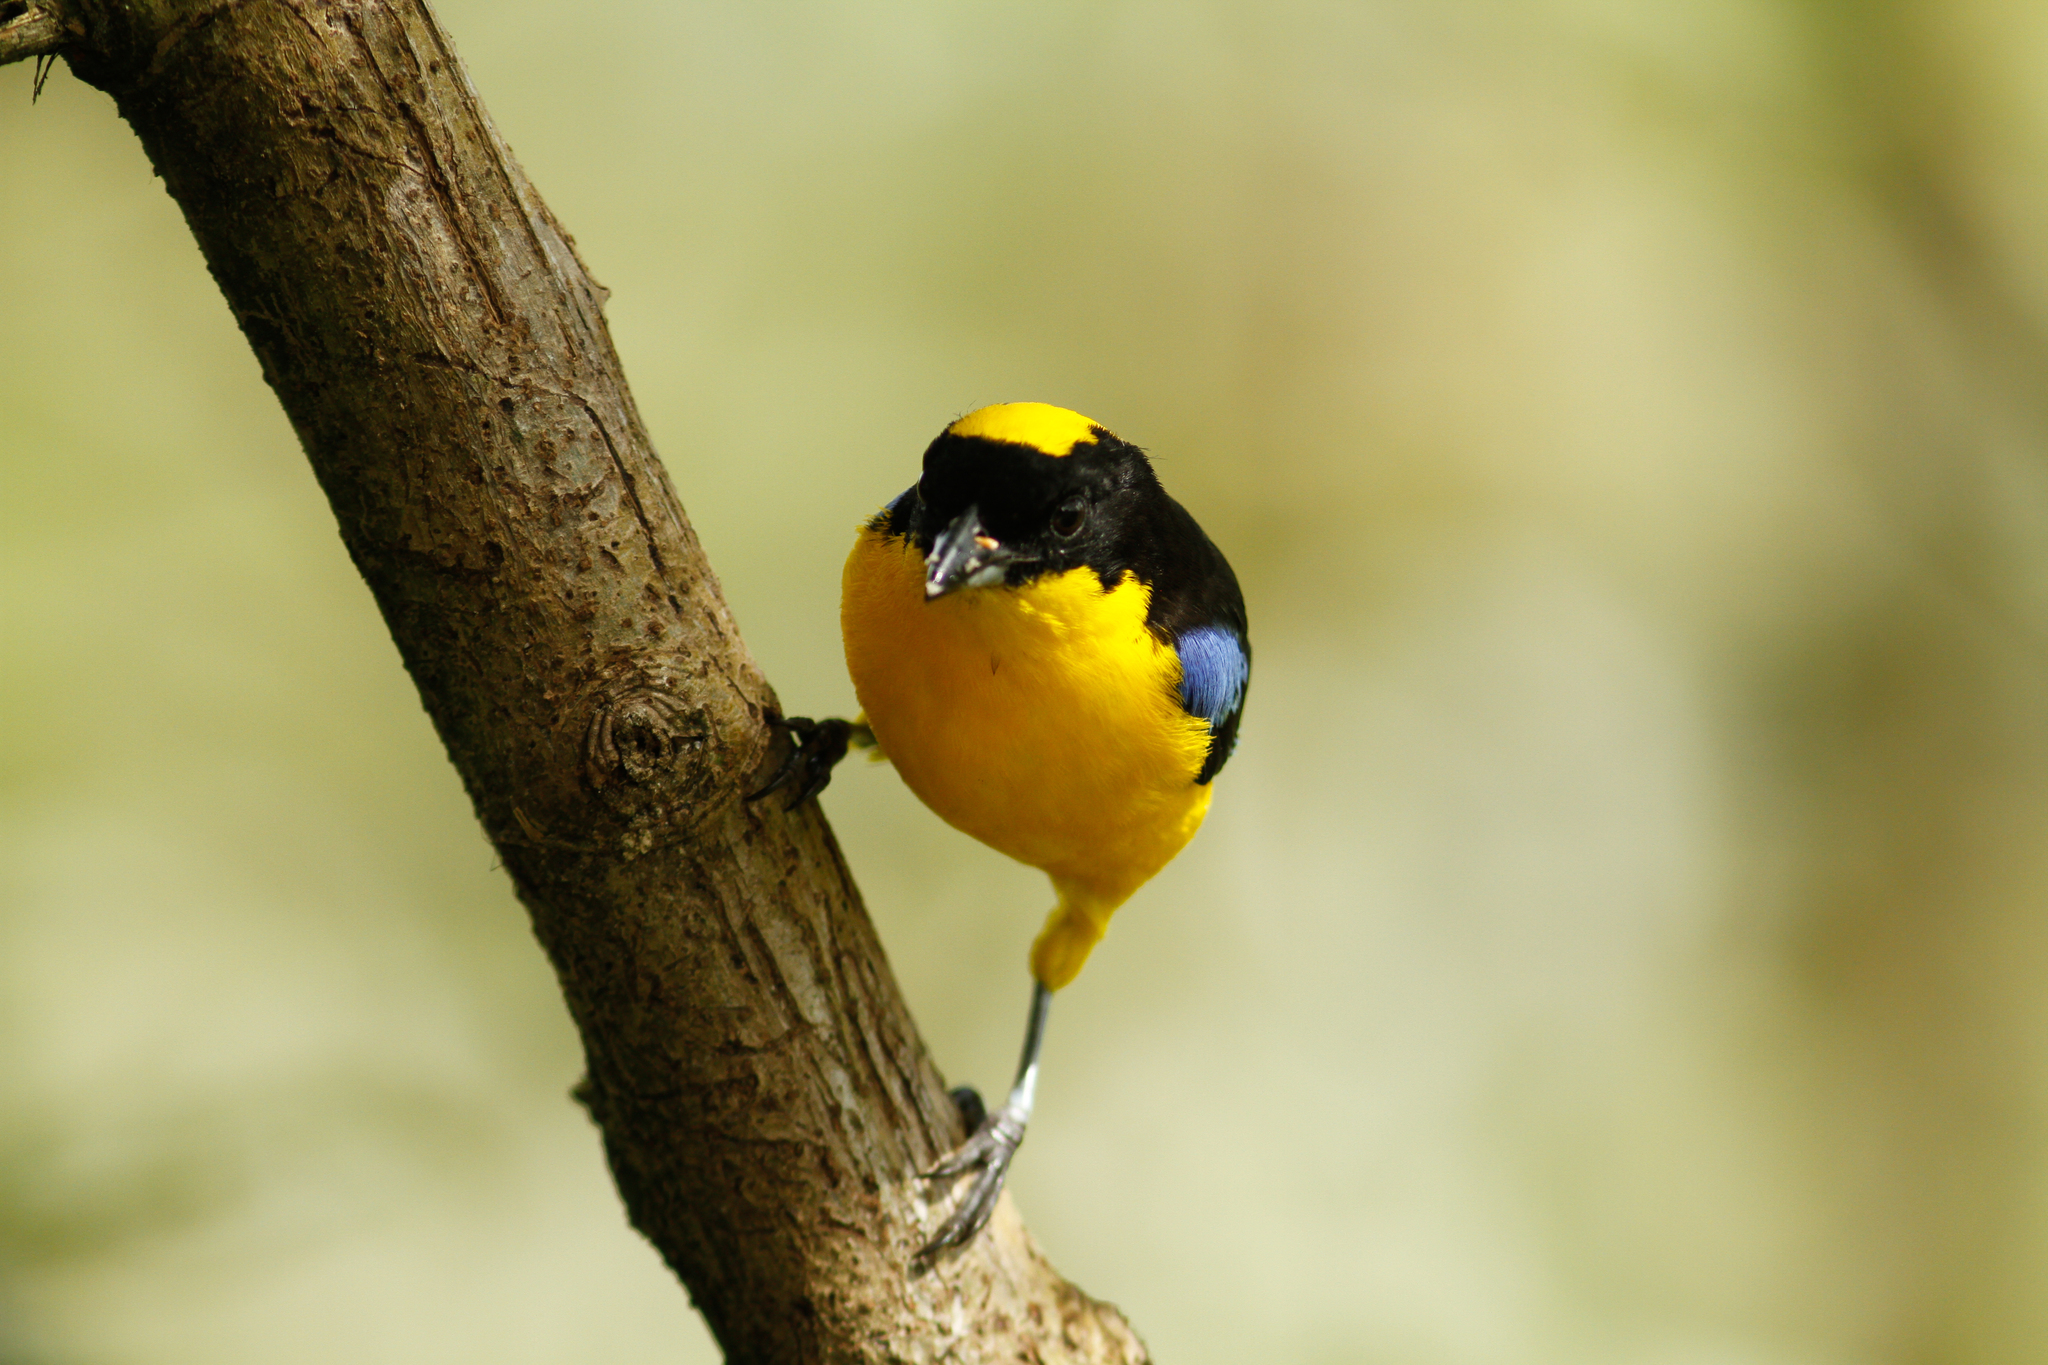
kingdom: Animalia
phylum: Chordata
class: Aves
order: Passeriformes
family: Thraupidae
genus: Anisognathus
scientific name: Anisognathus somptuosus
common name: Blue-winged mountain-tanager
